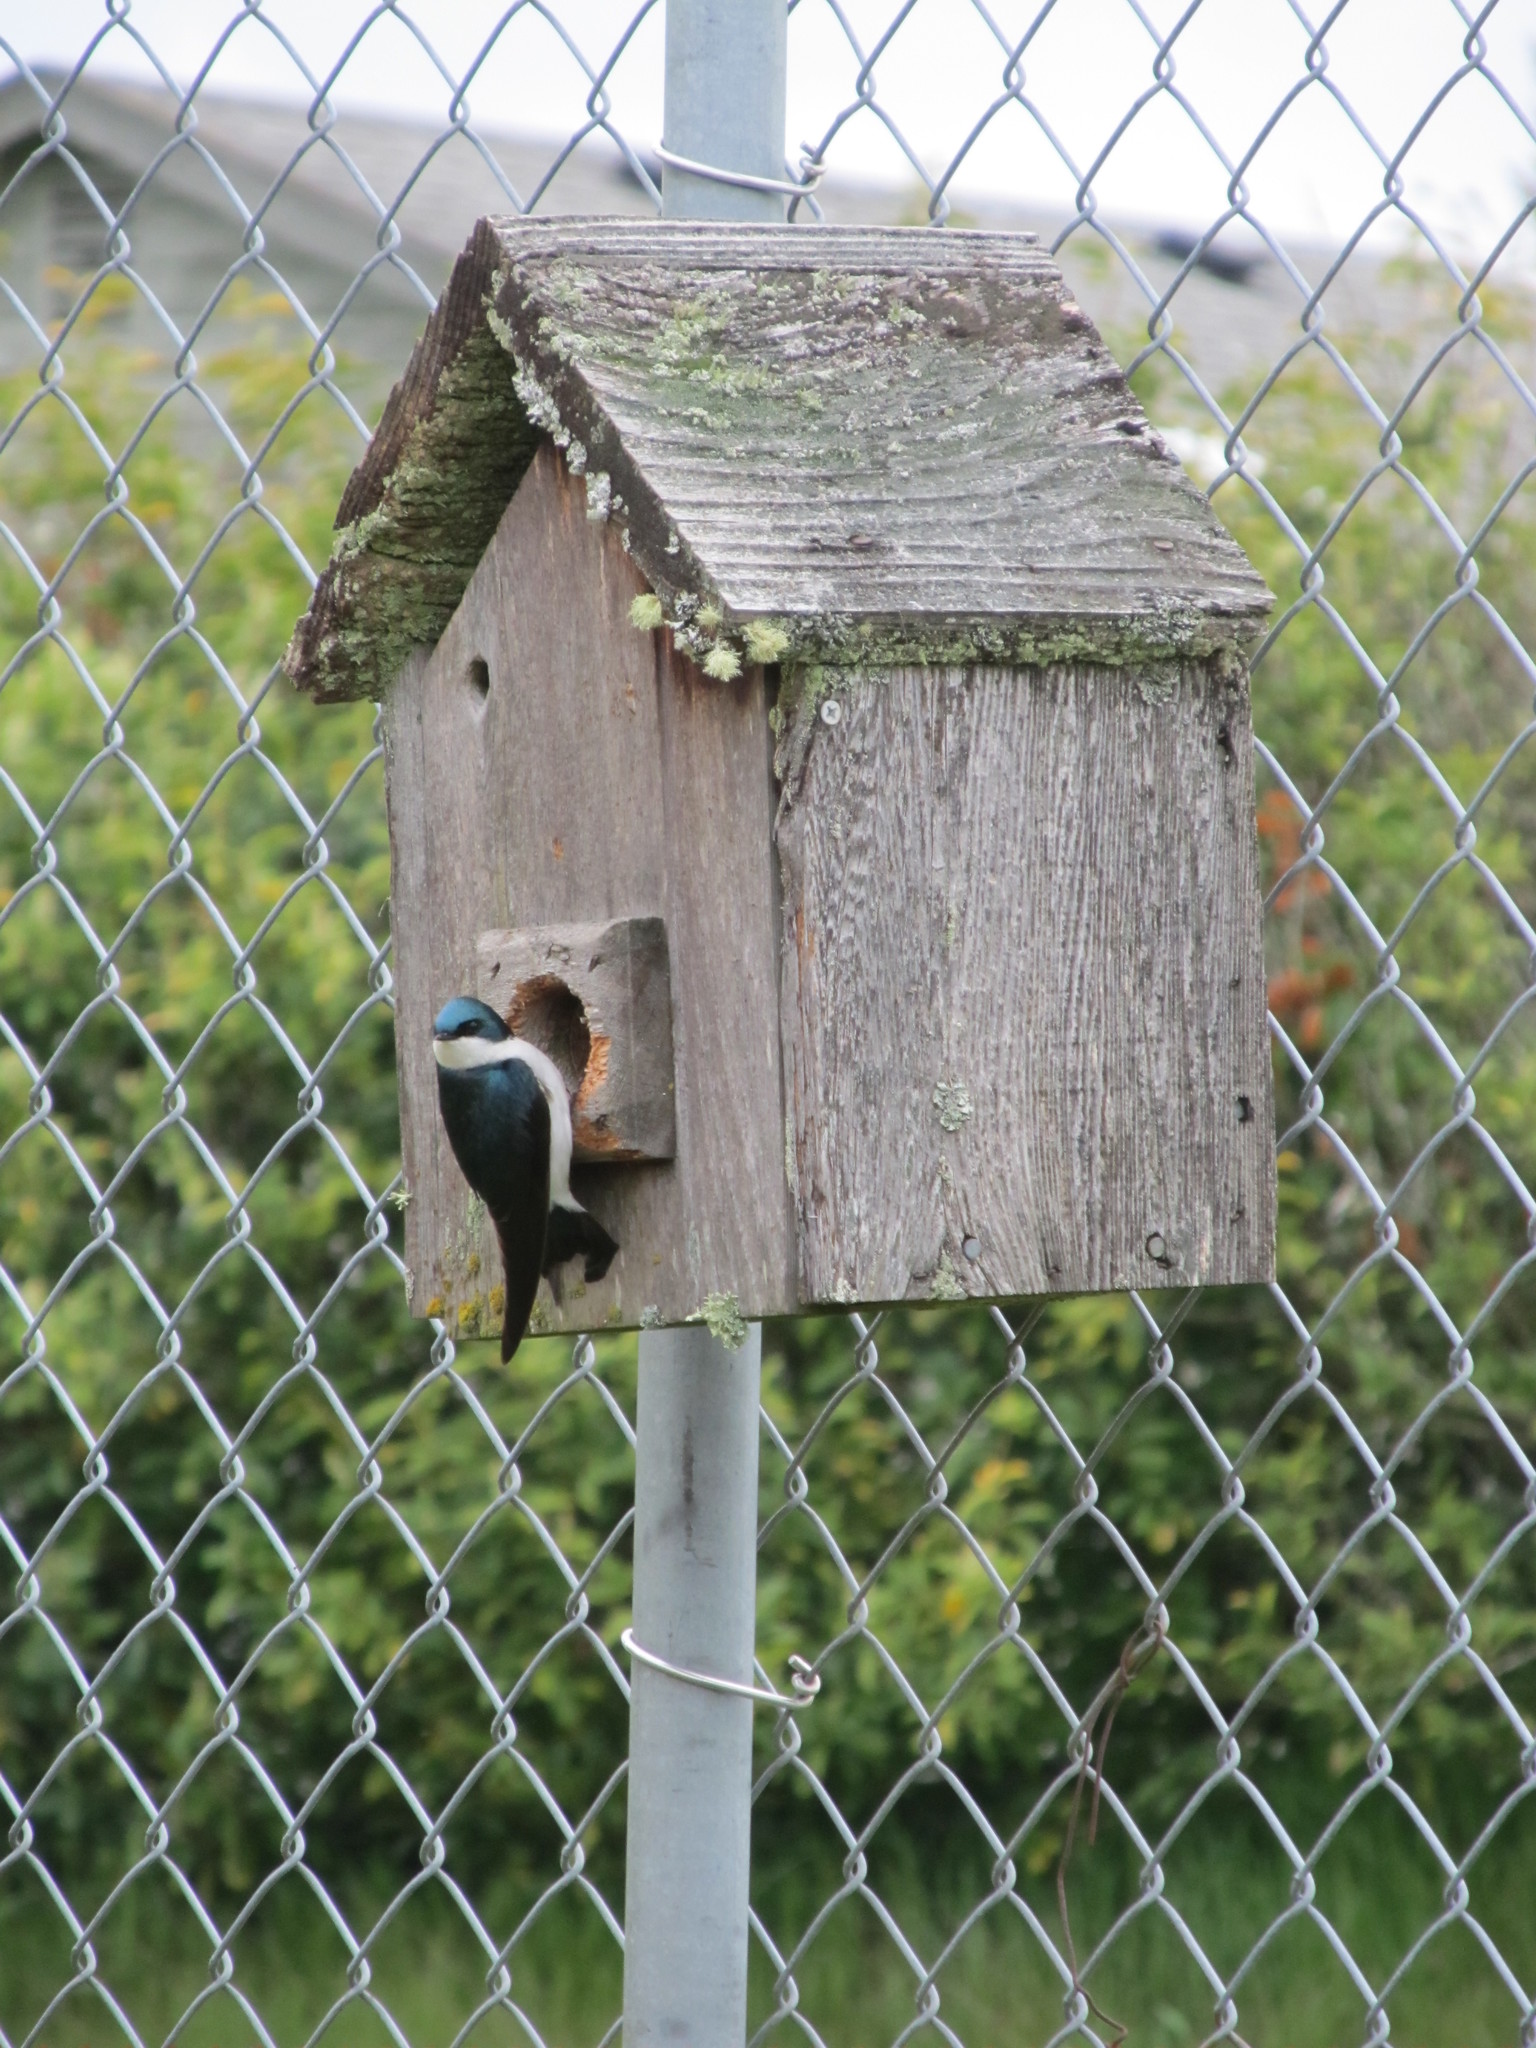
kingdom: Animalia
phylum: Chordata
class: Aves
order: Passeriformes
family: Hirundinidae
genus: Tachycineta
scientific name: Tachycineta bicolor
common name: Tree swallow
